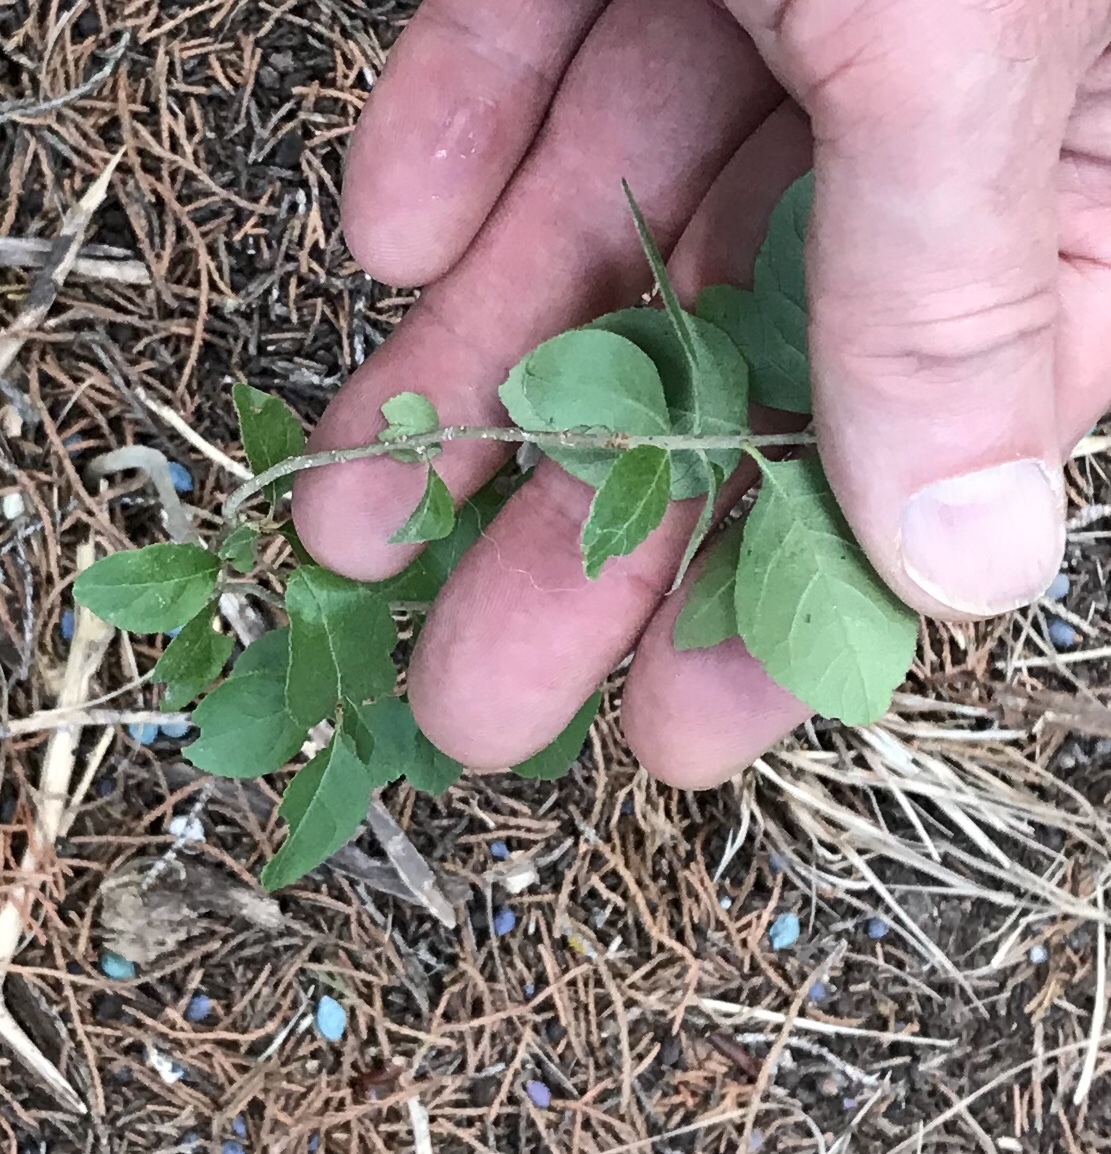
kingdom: Plantae
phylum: Tracheophyta
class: Magnoliopsida
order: Lamiales
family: Oleaceae
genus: Forestiera
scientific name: Forestiera pubescens
